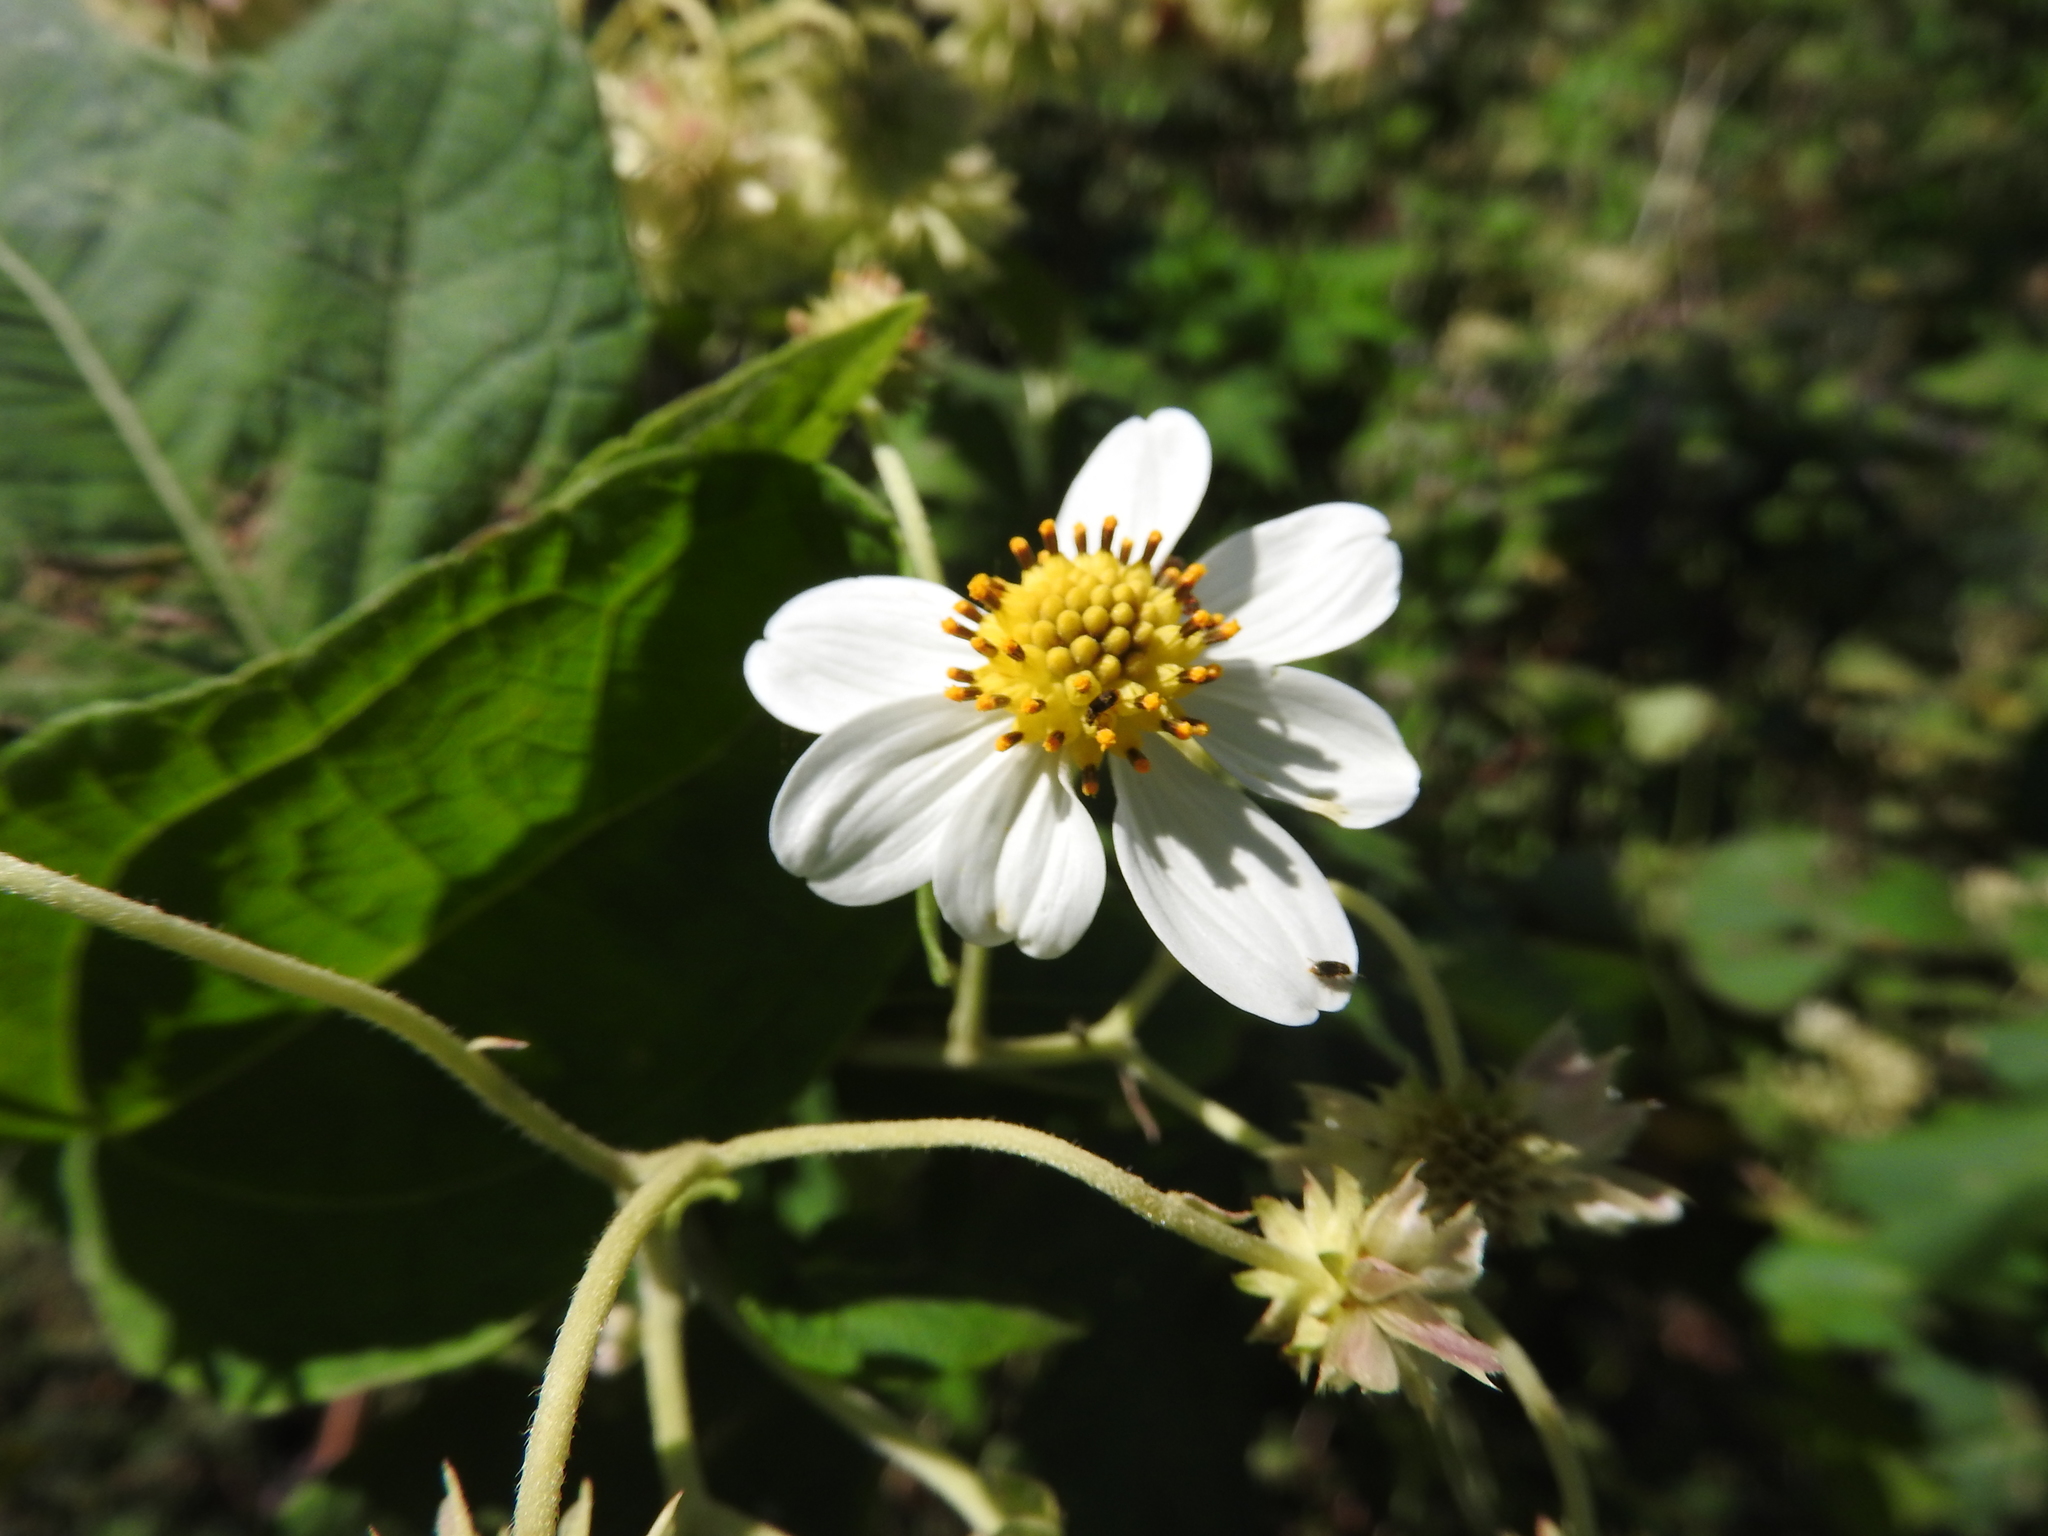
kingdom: Plantae
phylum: Tracheophyta
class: Magnoliopsida
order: Asterales
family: Asteraceae
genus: Montanoa
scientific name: Montanoa hibiscifolia
